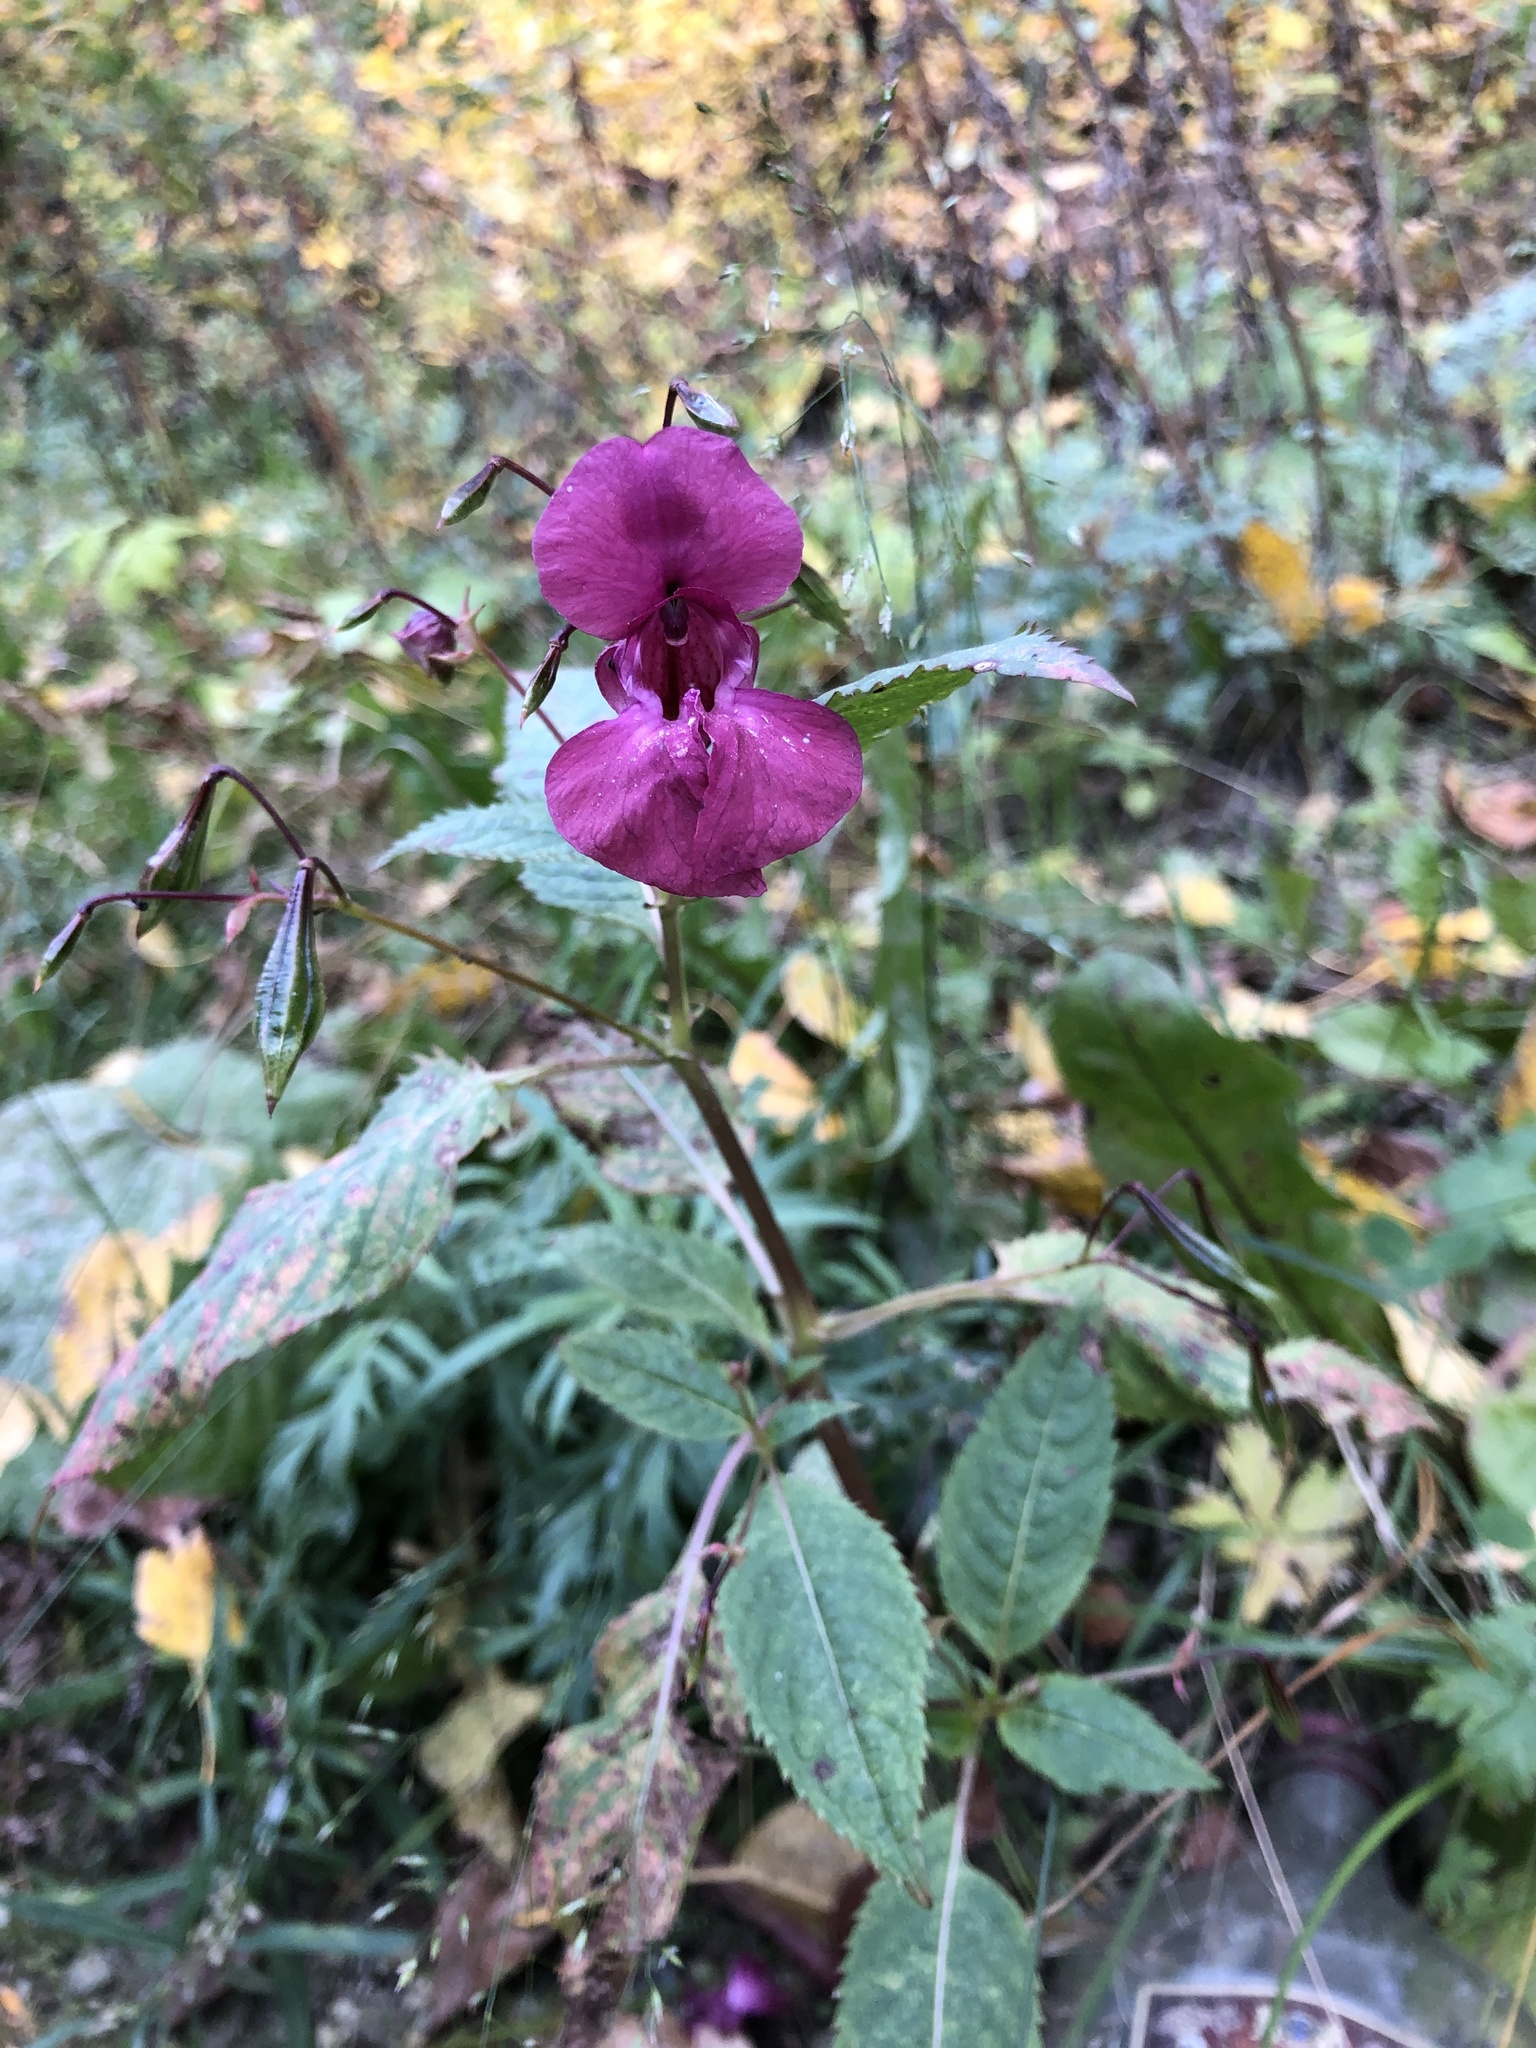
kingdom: Plantae
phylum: Tracheophyta
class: Magnoliopsida
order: Ericales
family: Balsaminaceae
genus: Impatiens
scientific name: Impatiens glandulifera
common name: Himalayan balsam
